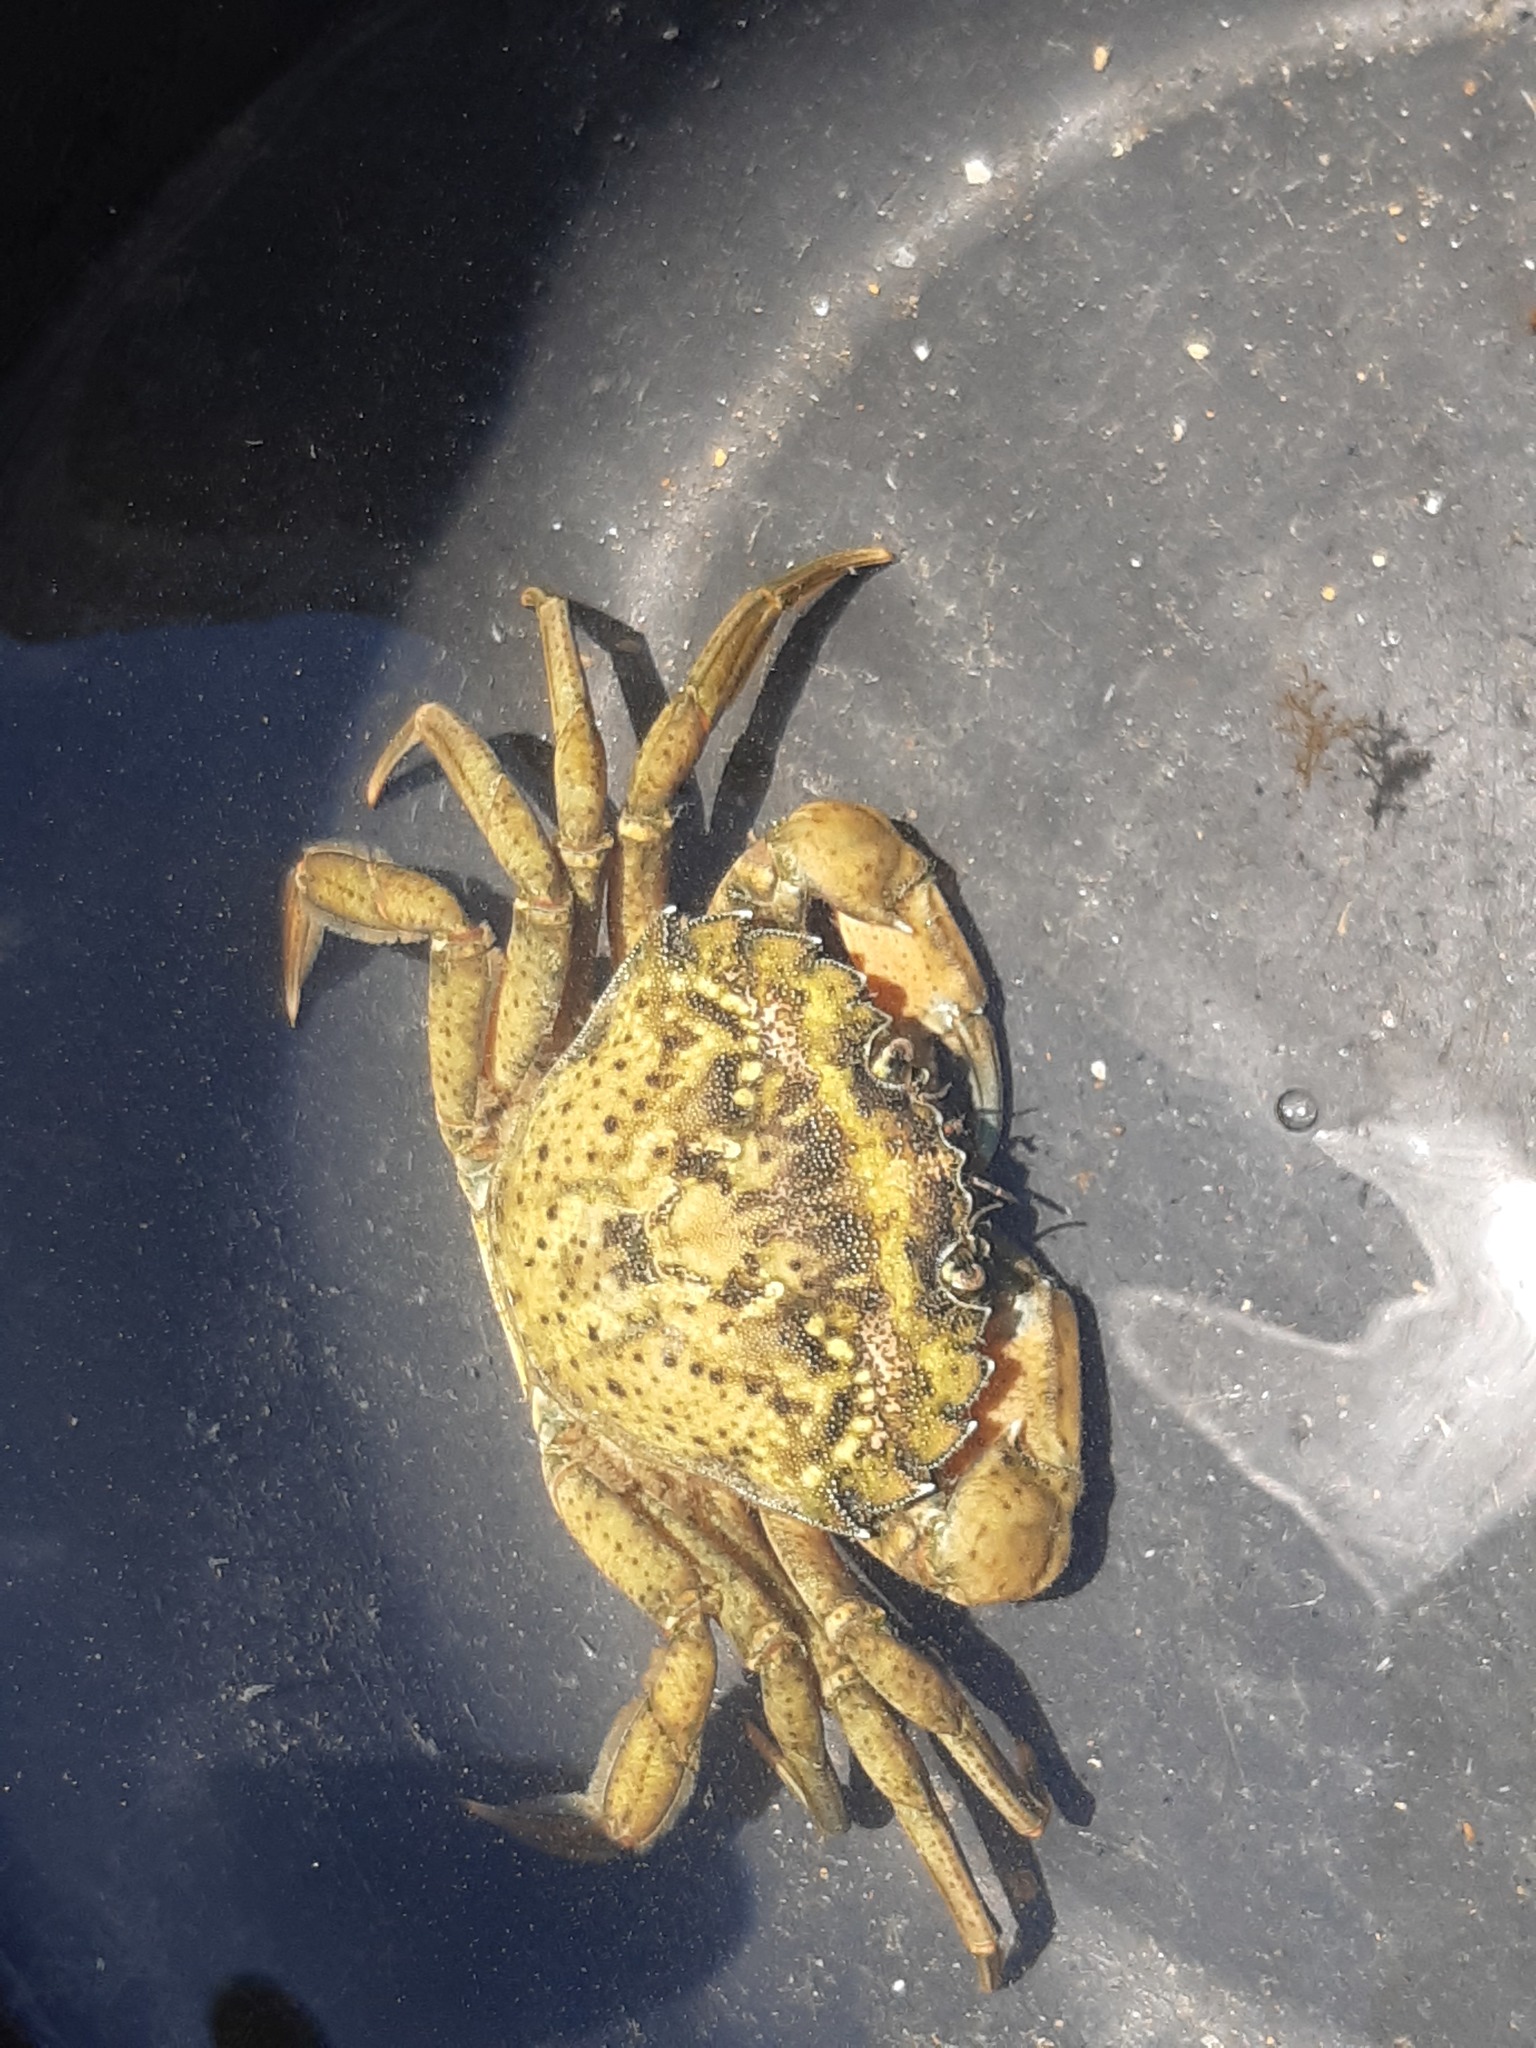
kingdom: Animalia
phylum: Arthropoda
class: Malacostraca
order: Decapoda
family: Carcinidae
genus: Carcinus
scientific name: Carcinus maenas
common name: European green crab
